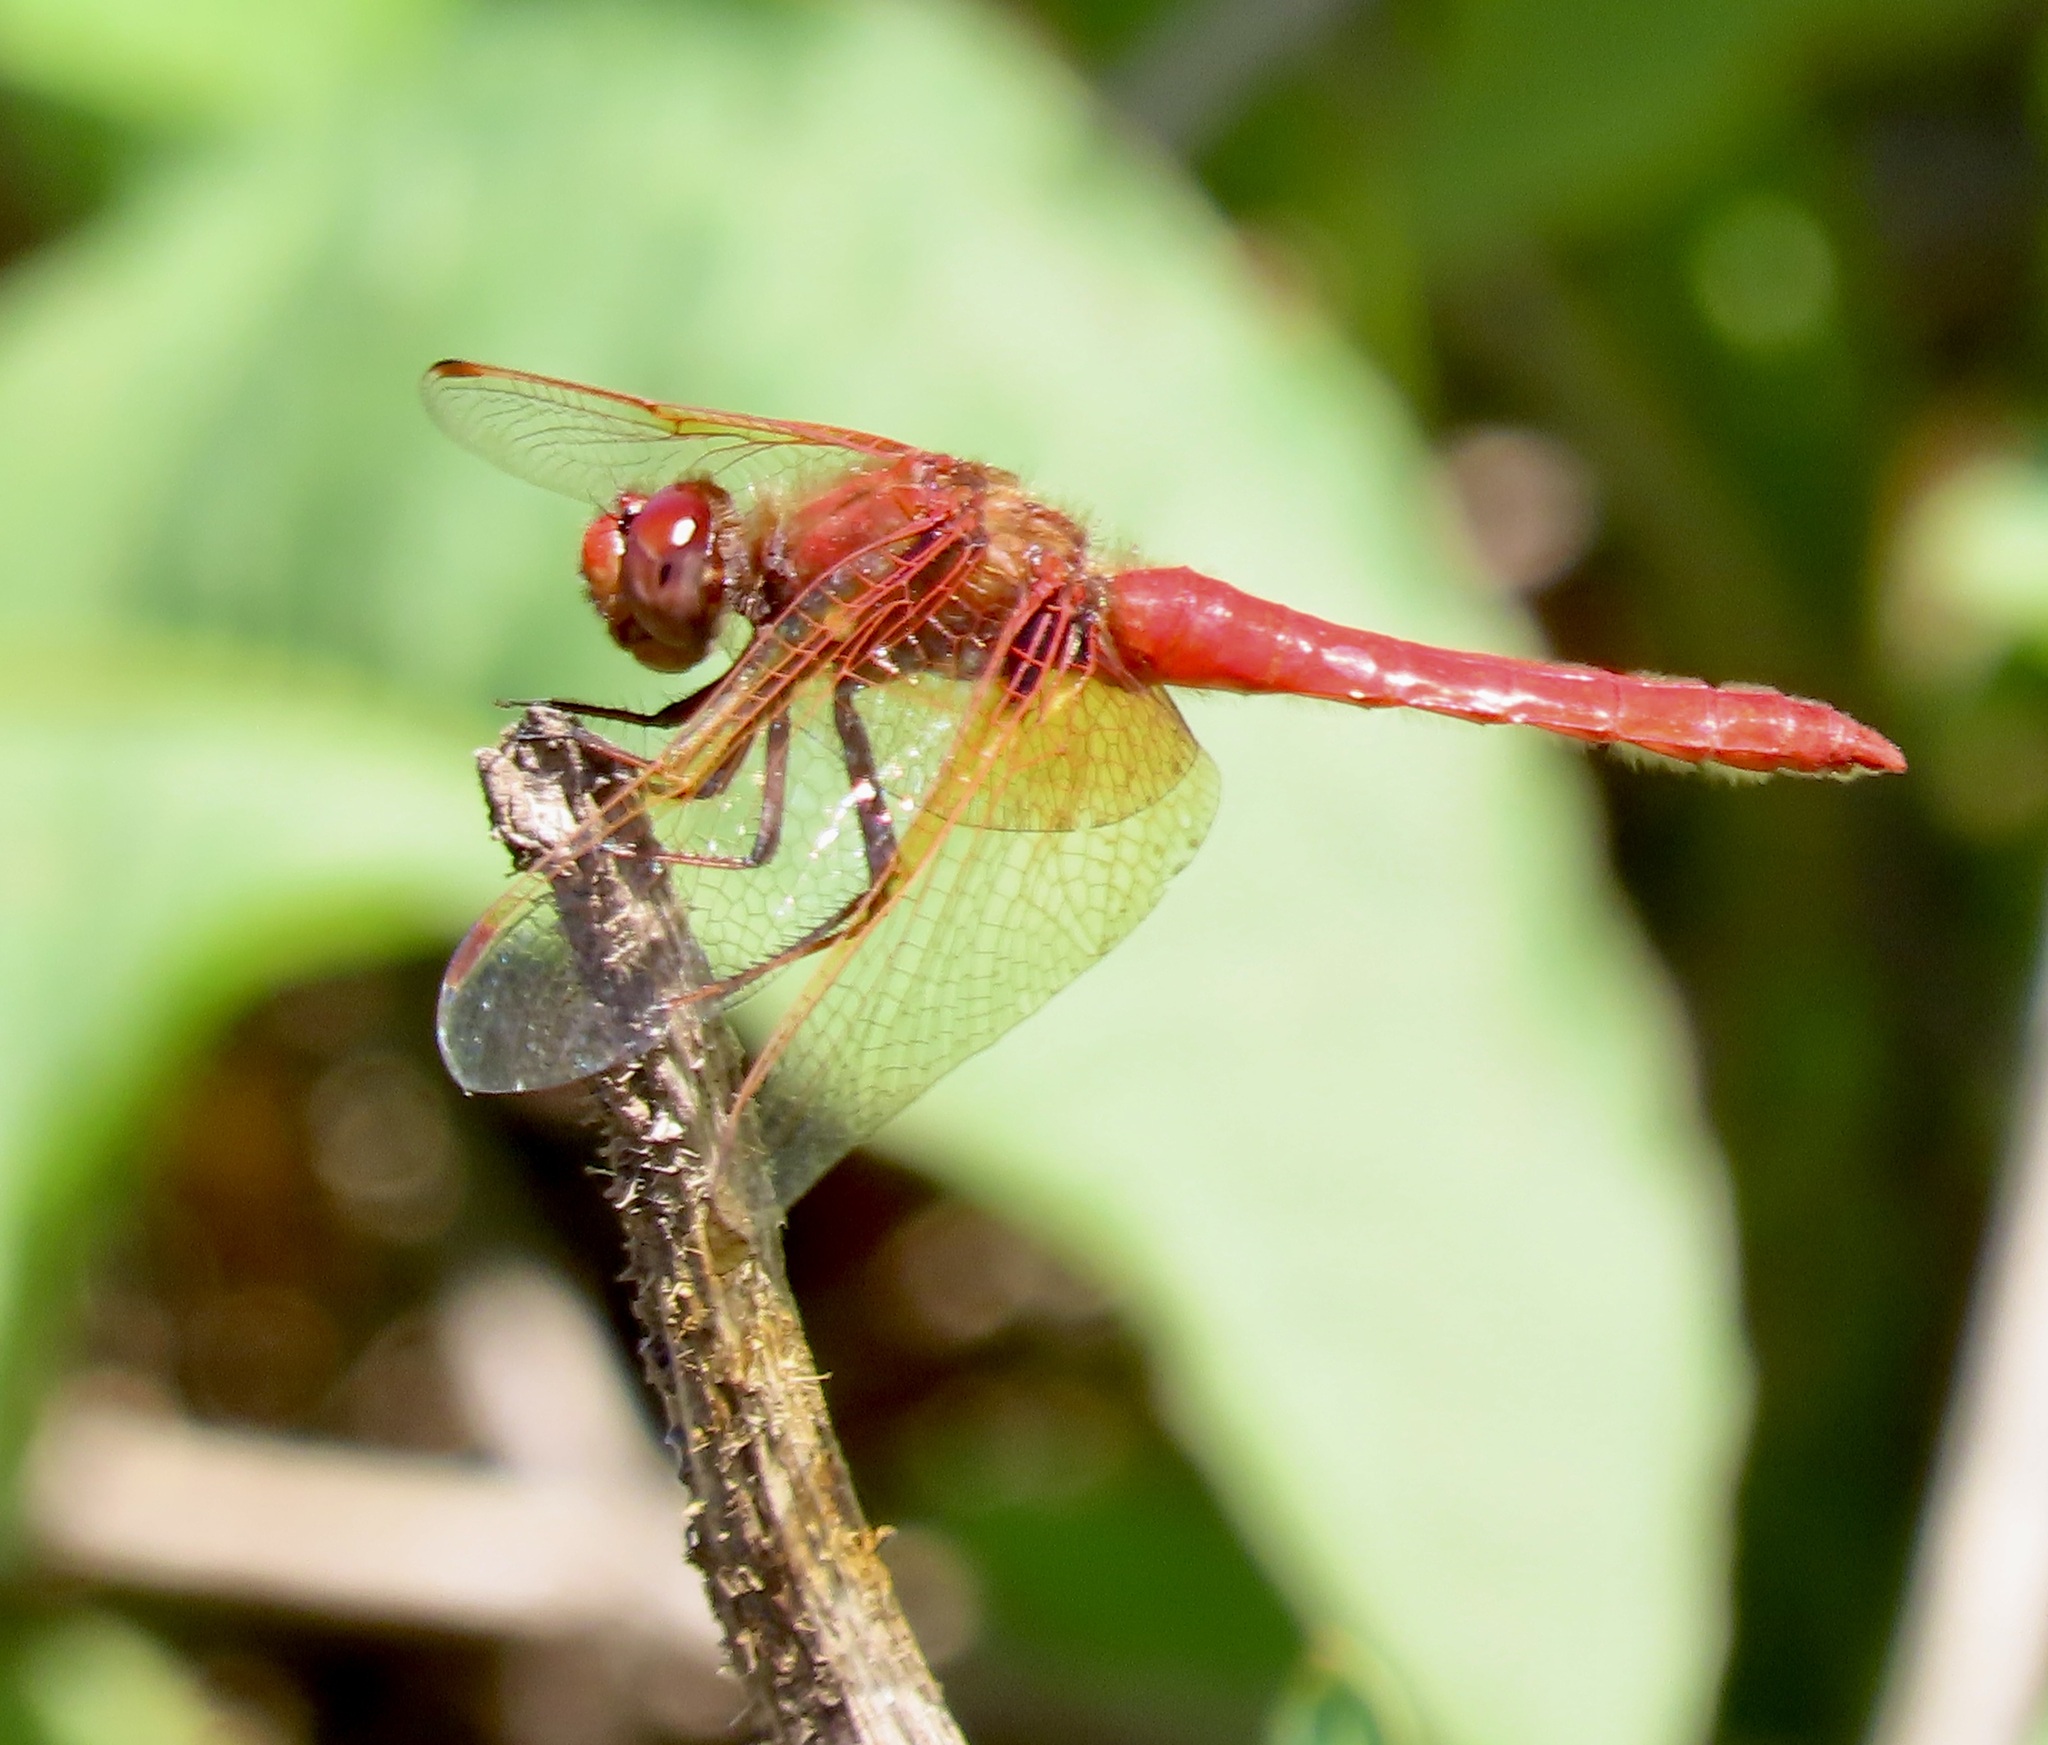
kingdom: Animalia
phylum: Arthropoda
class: Insecta
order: Odonata
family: Libellulidae
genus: Sympetrum
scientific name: Sympetrum illotum
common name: Cardinal meadowhawk
